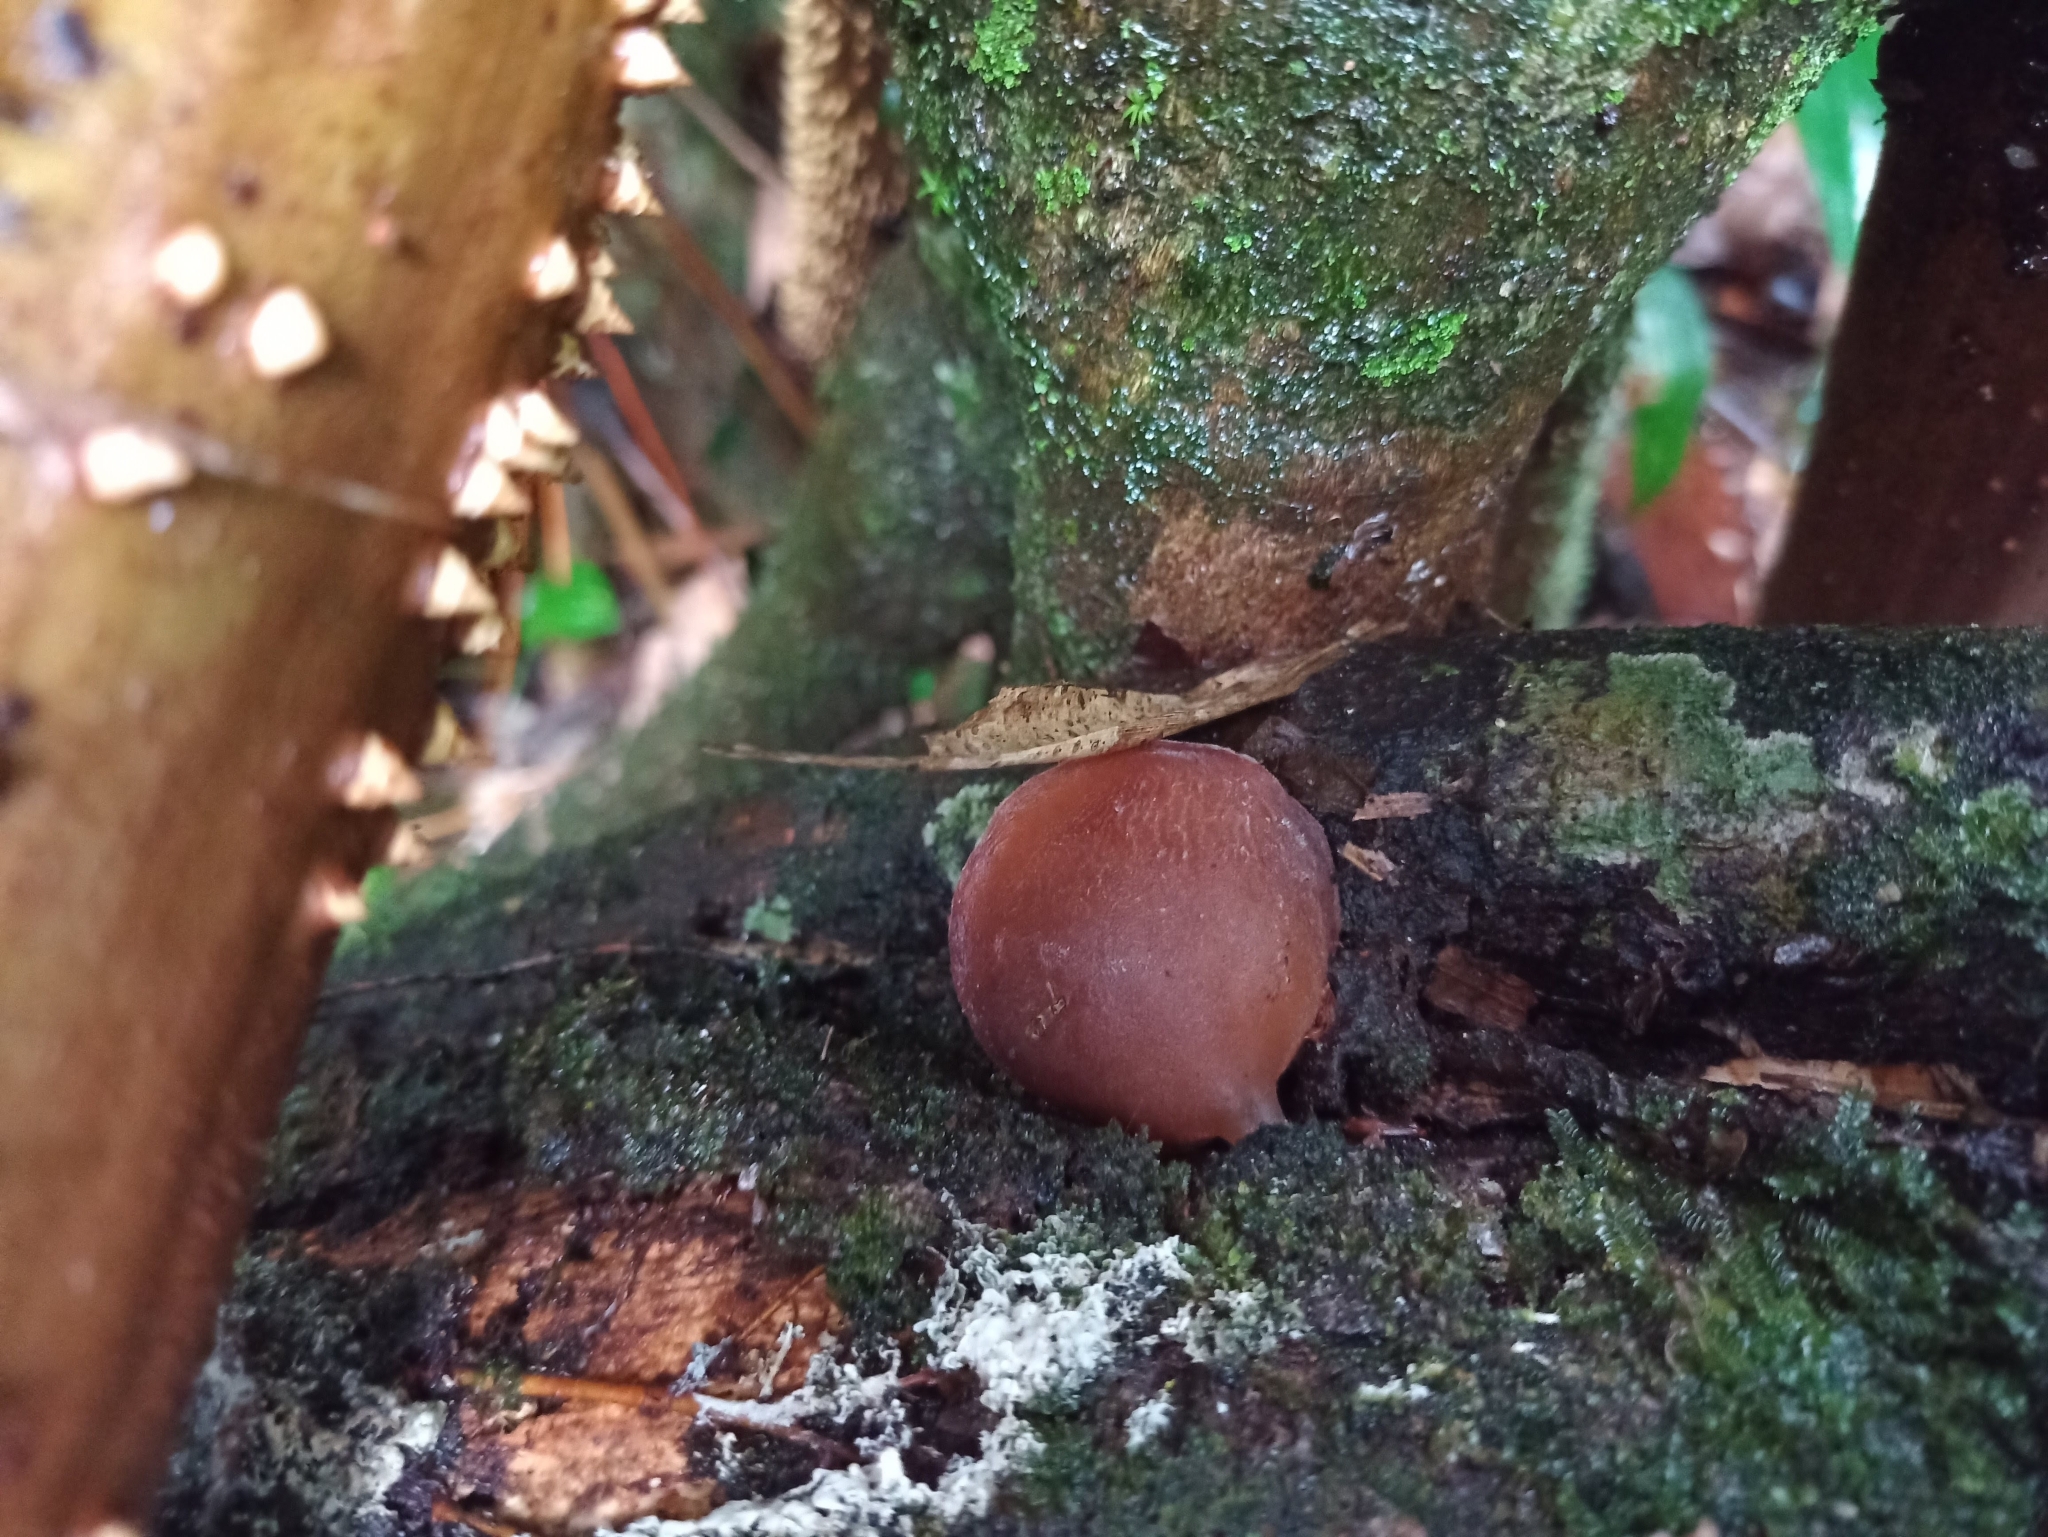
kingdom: Fungi
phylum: Basidiomycota
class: Agaricomycetes
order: Auriculariales
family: Auriculariaceae
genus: Auricularia
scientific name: Auricularia fuscosuccinea
